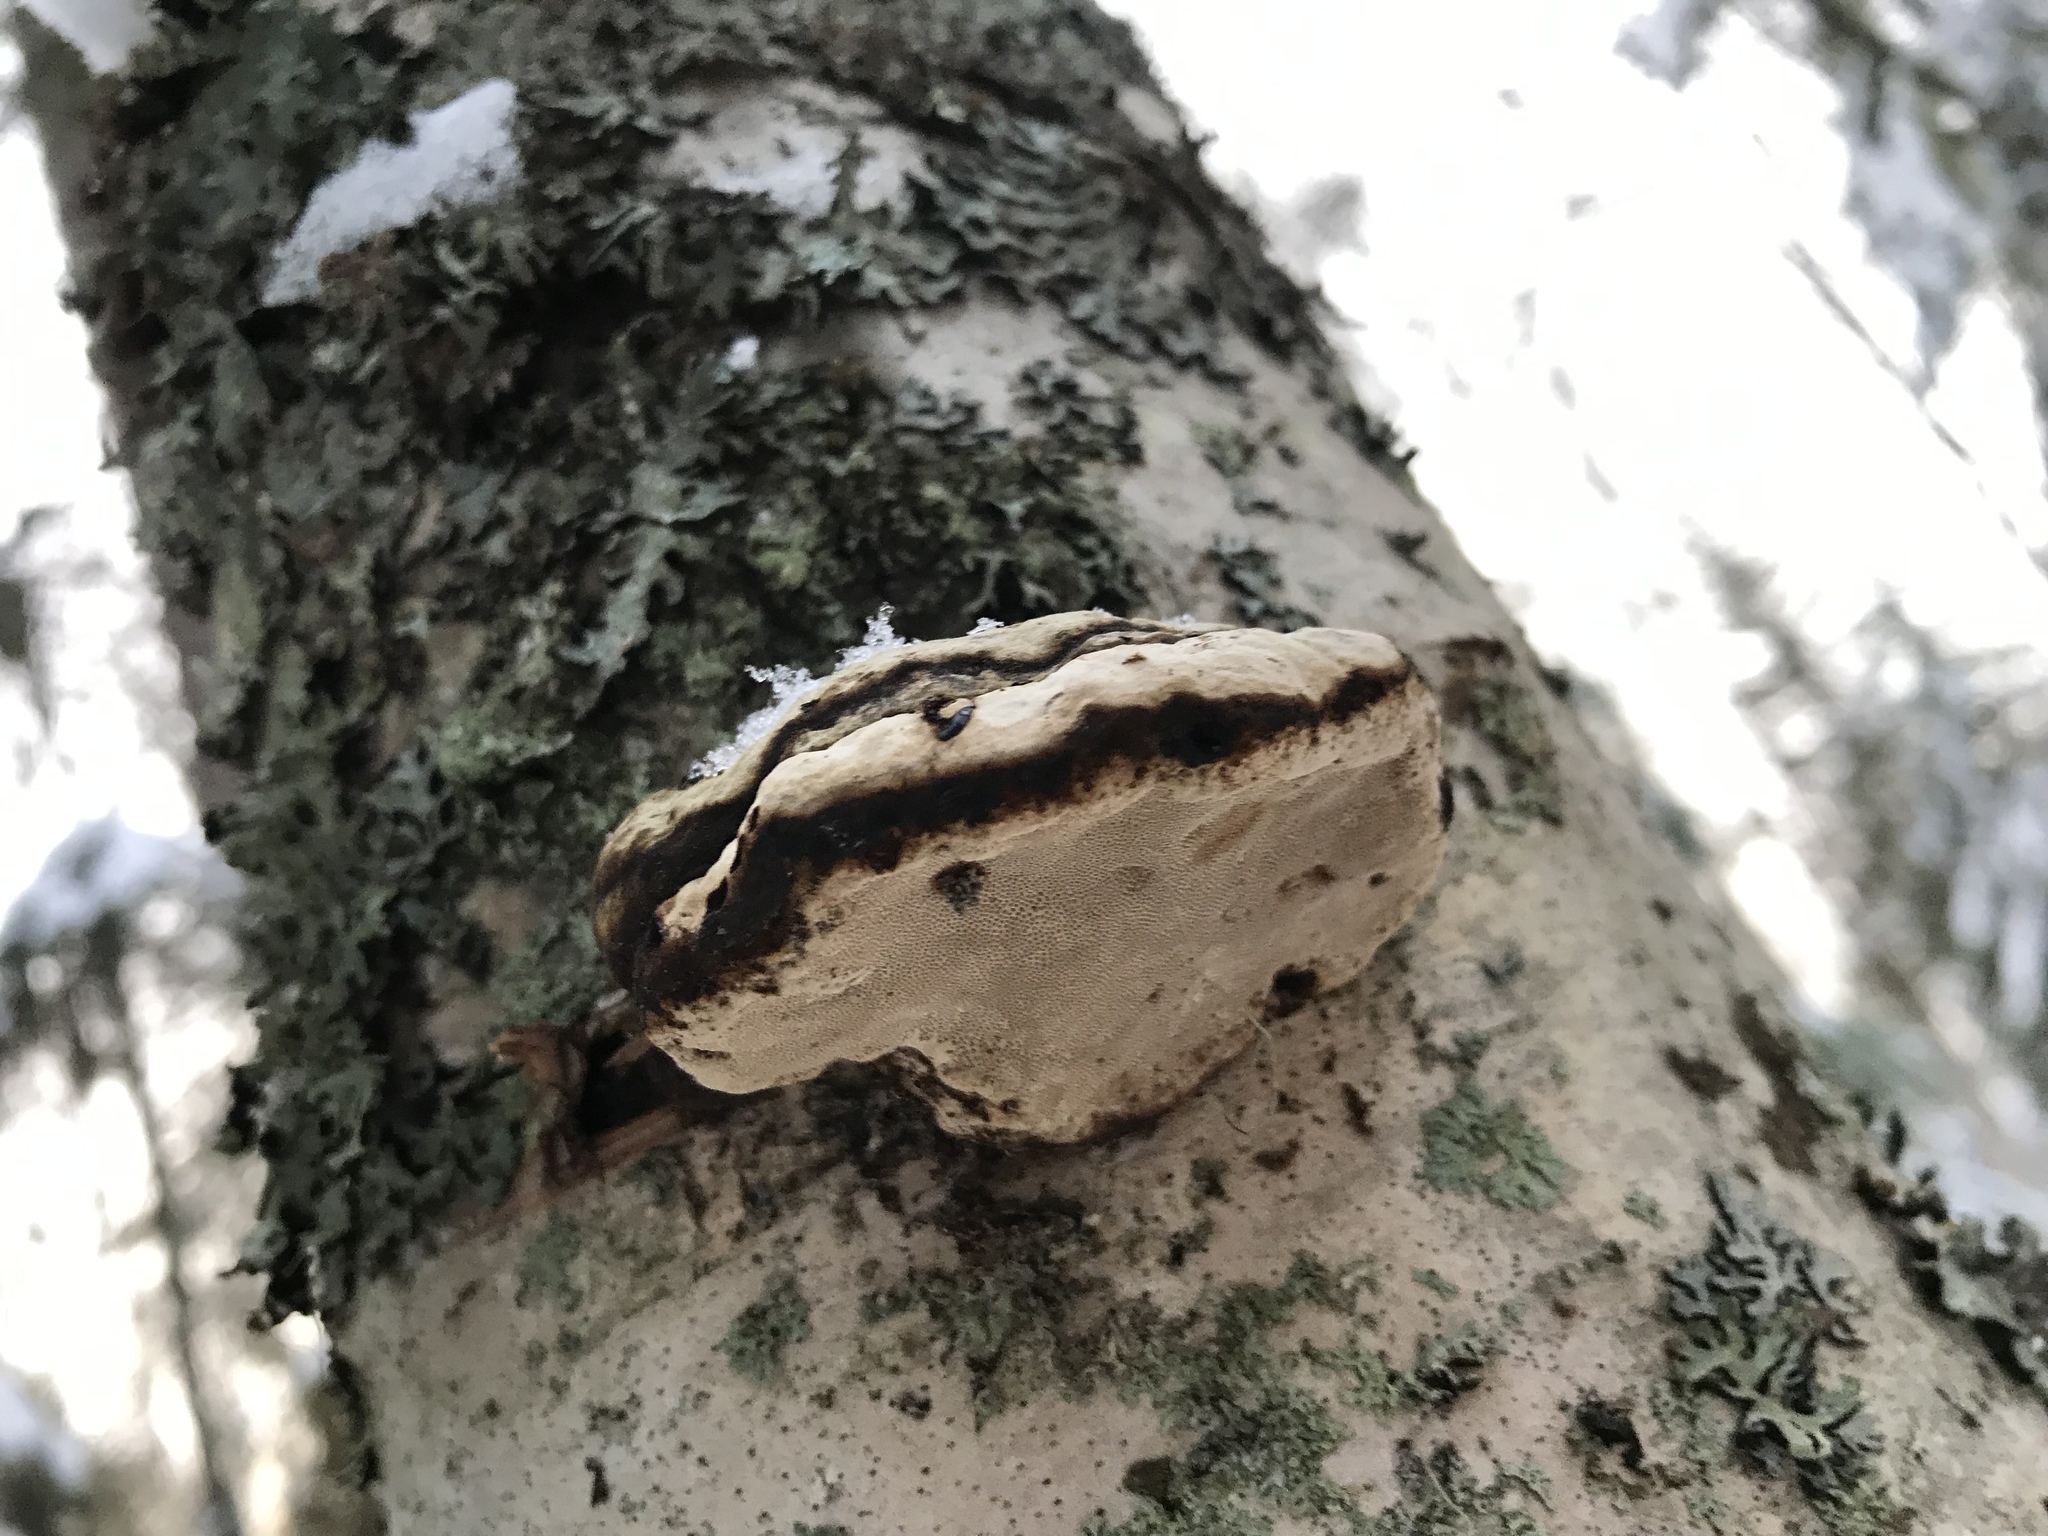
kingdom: Fungi
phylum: Basidiomycota
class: Agaricomycetes
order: Polyporales
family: Fomitopsidaceae
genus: Fomitopsis
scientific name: Fomitopsis betulina
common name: Birch polypore
